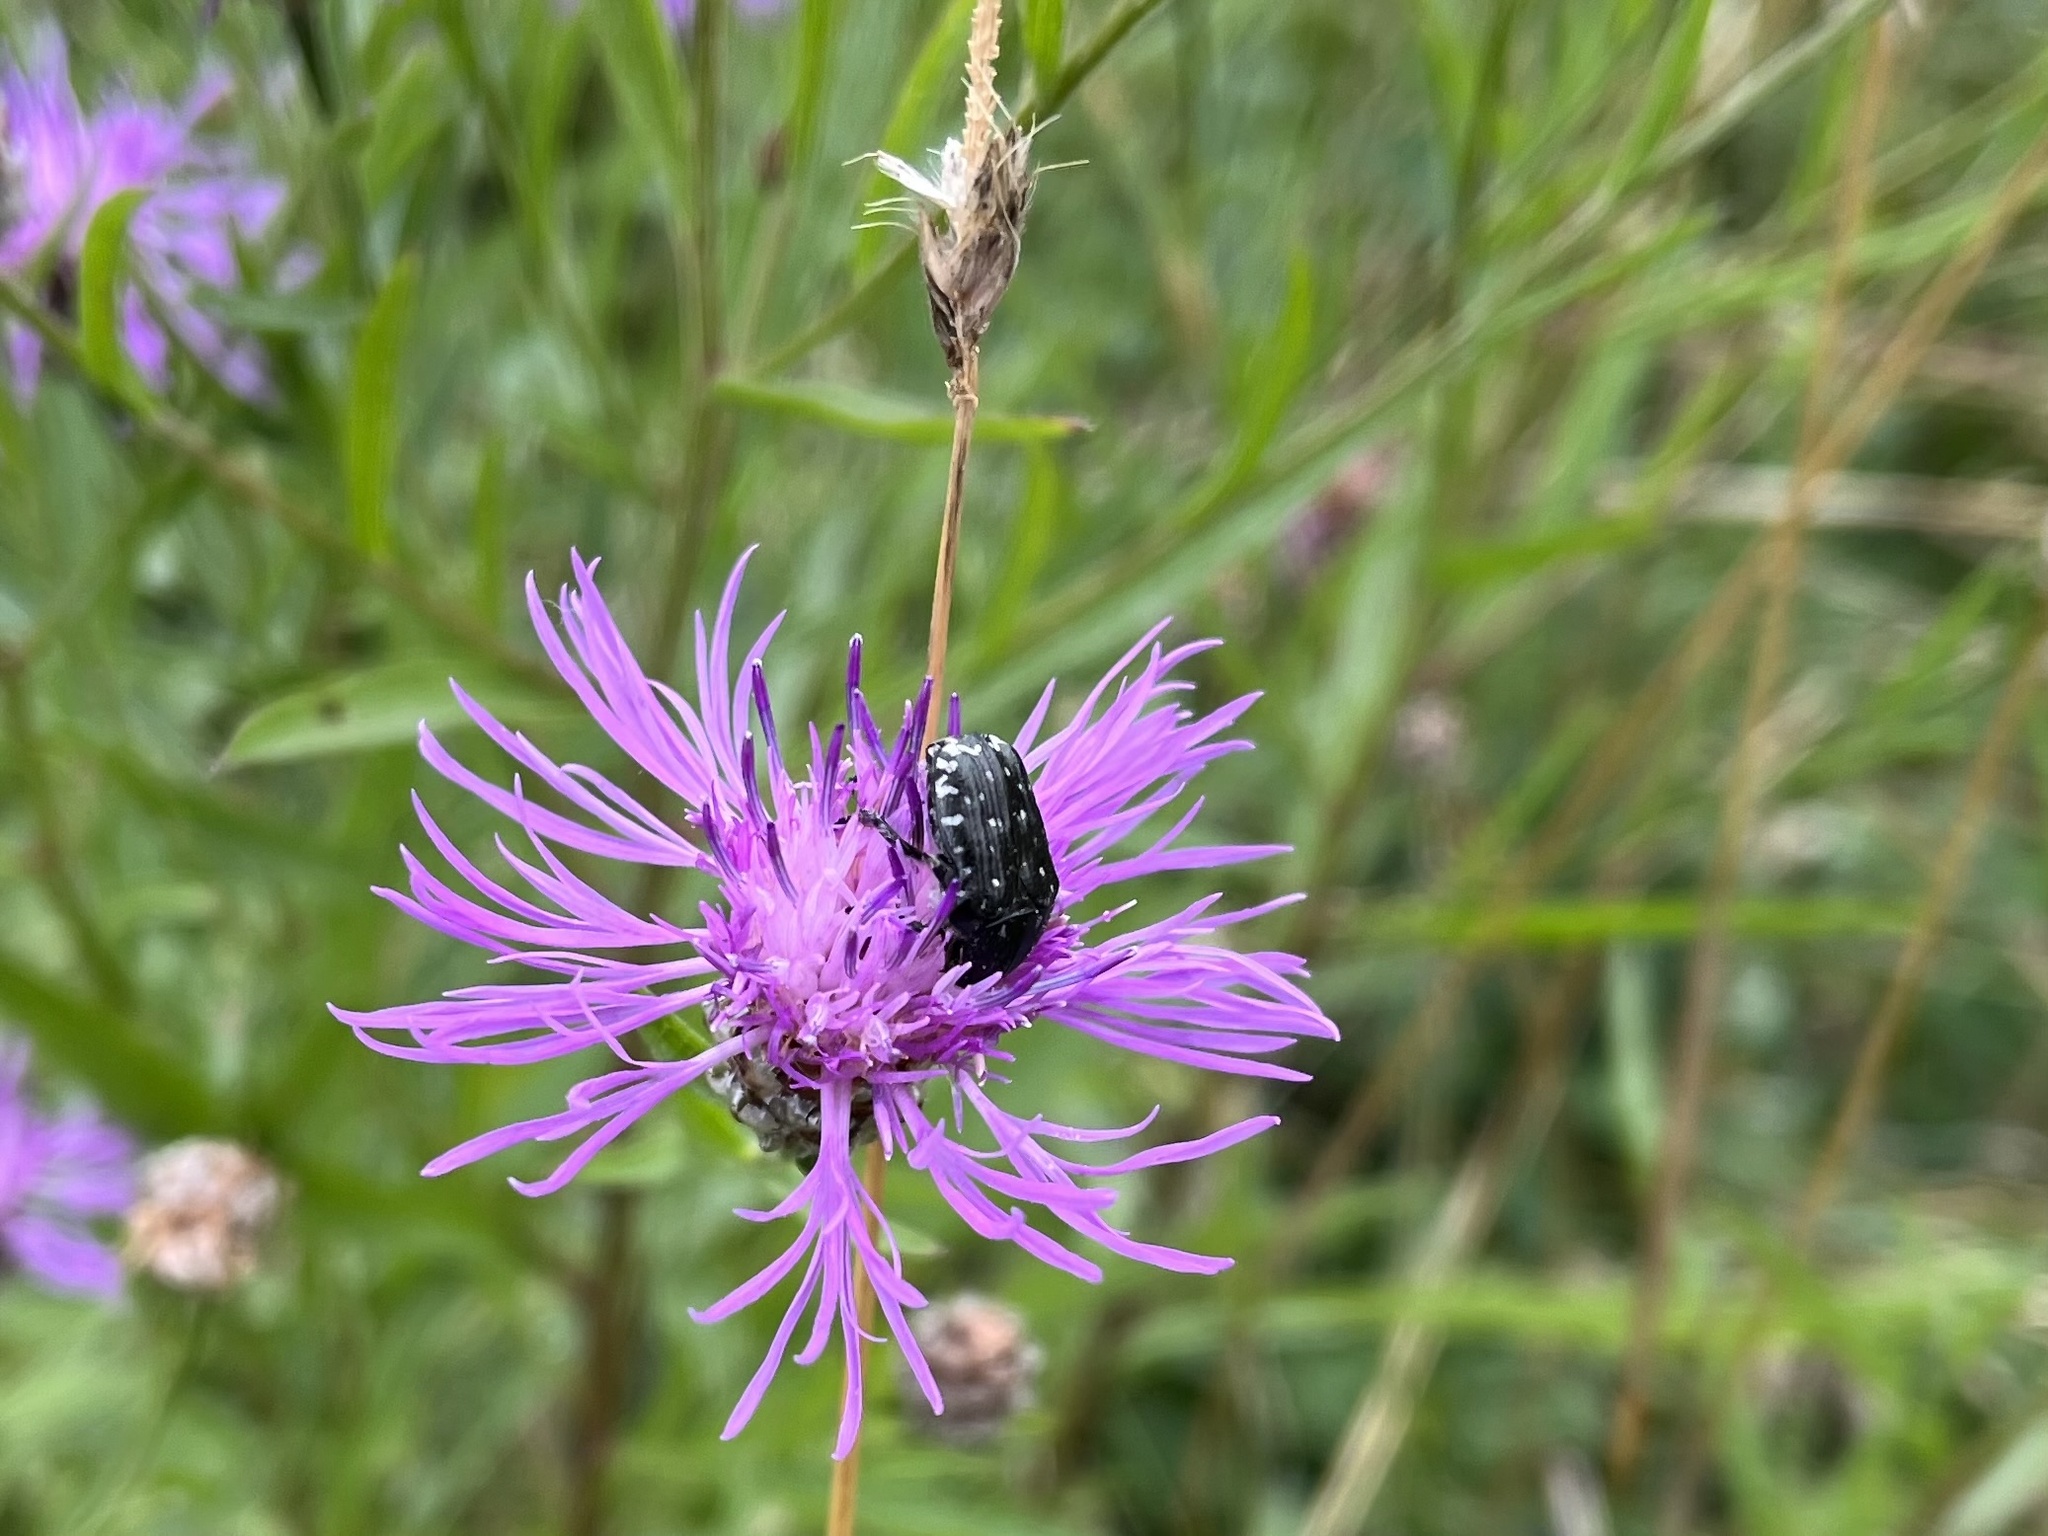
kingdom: Animalia
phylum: Arthropoda
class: Insecta
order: Coleoptera
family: Scarabaeidae
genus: Oxythyrea
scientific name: Oxythyrea funesta
